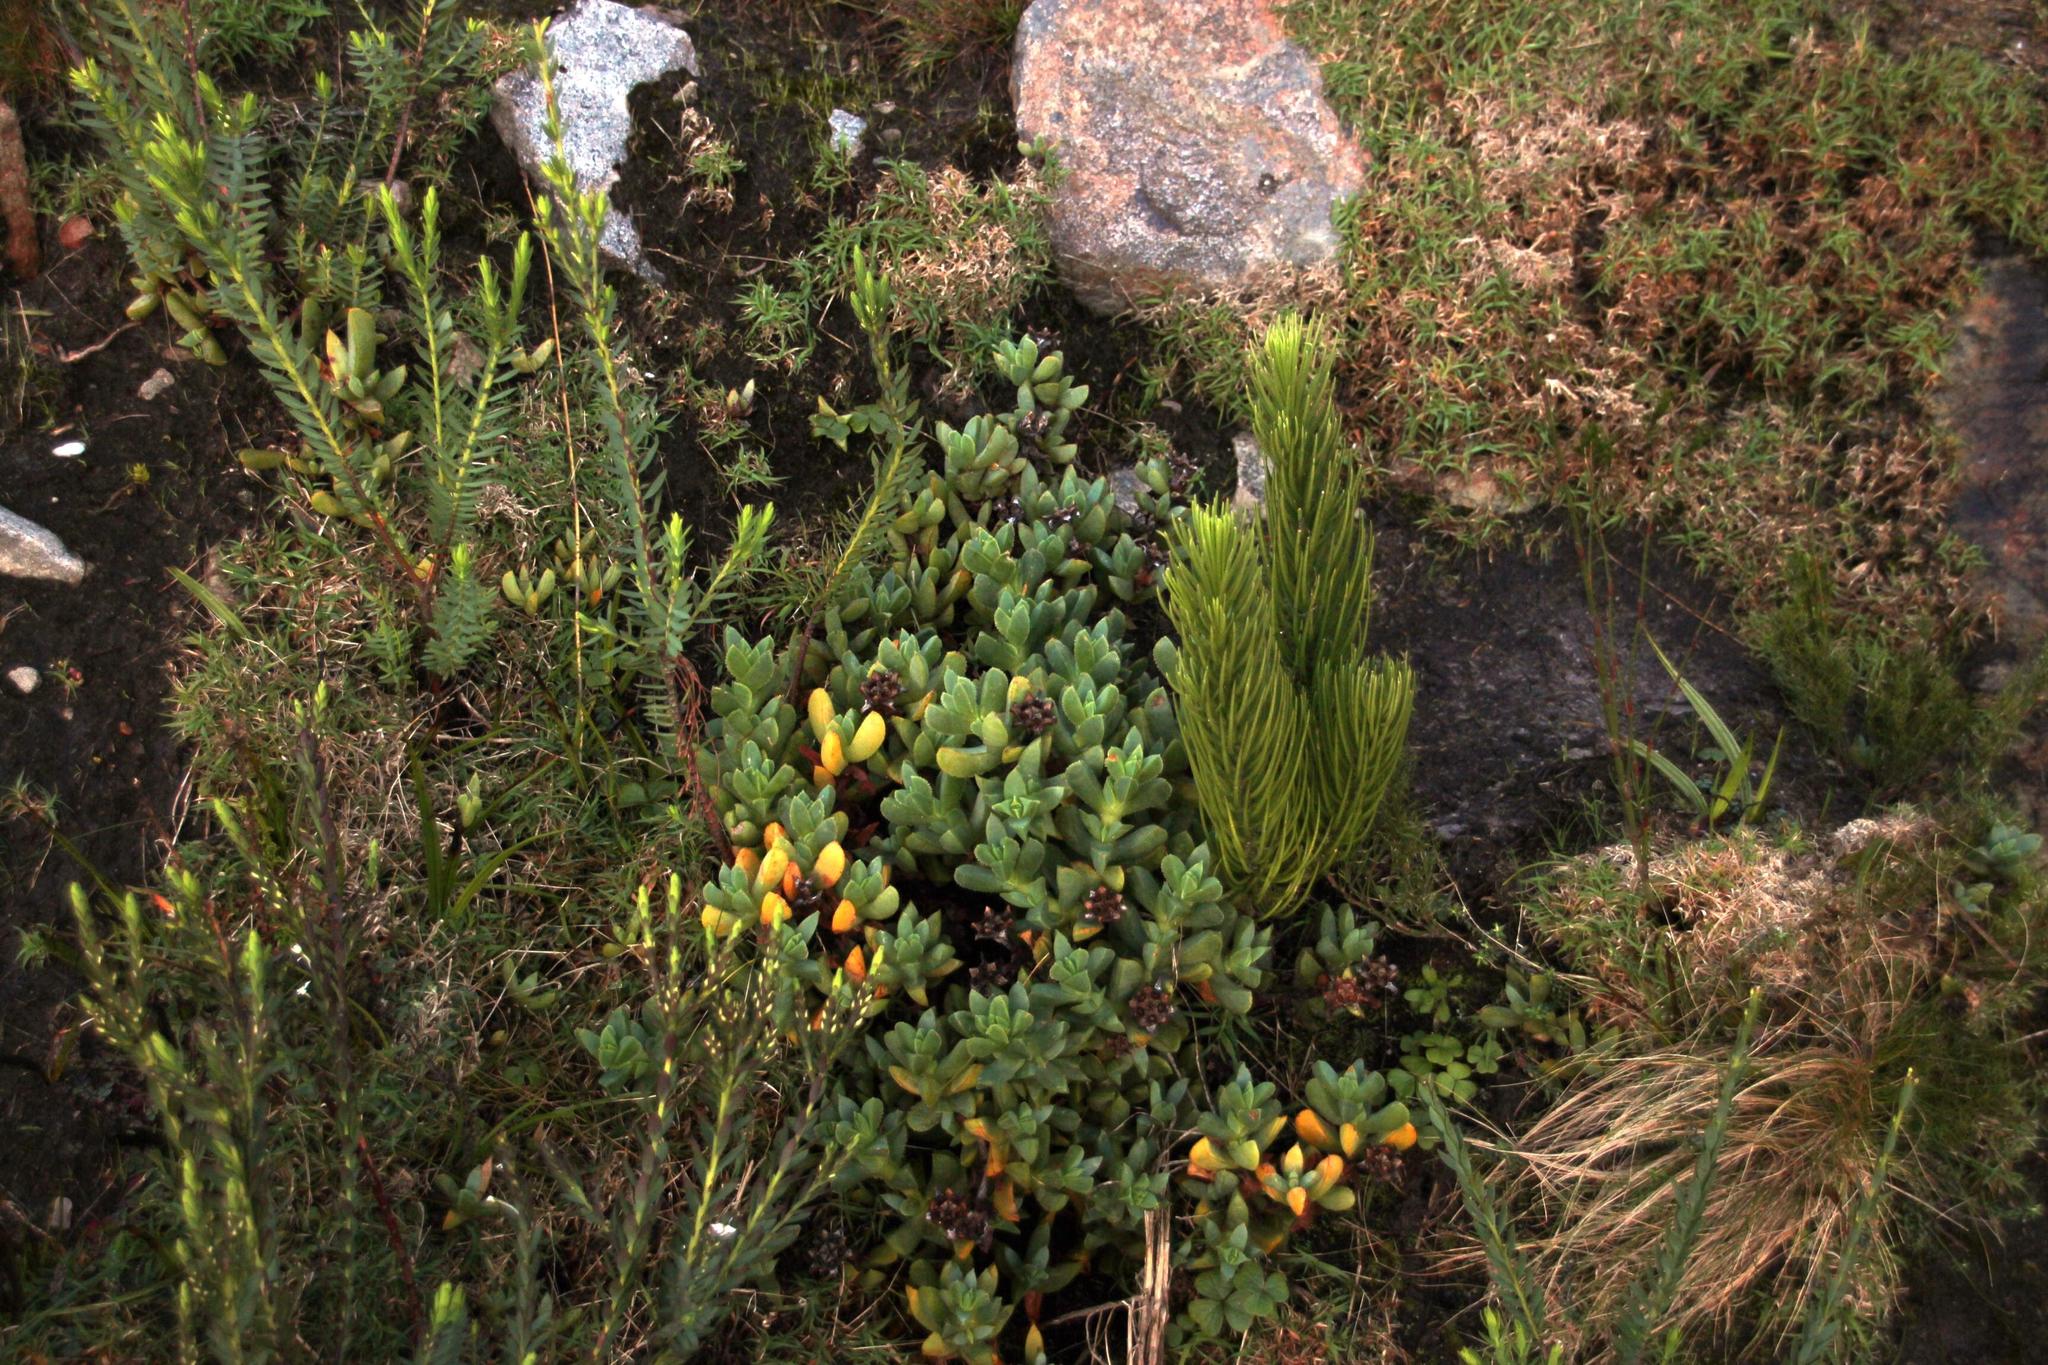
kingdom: Plantae
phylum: Tracheophyta
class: Magnoliopsida
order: Caryophyllales
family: Aizoaceae
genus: Erepsia
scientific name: Erepsia heteropetala
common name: Lesser sea-fig
